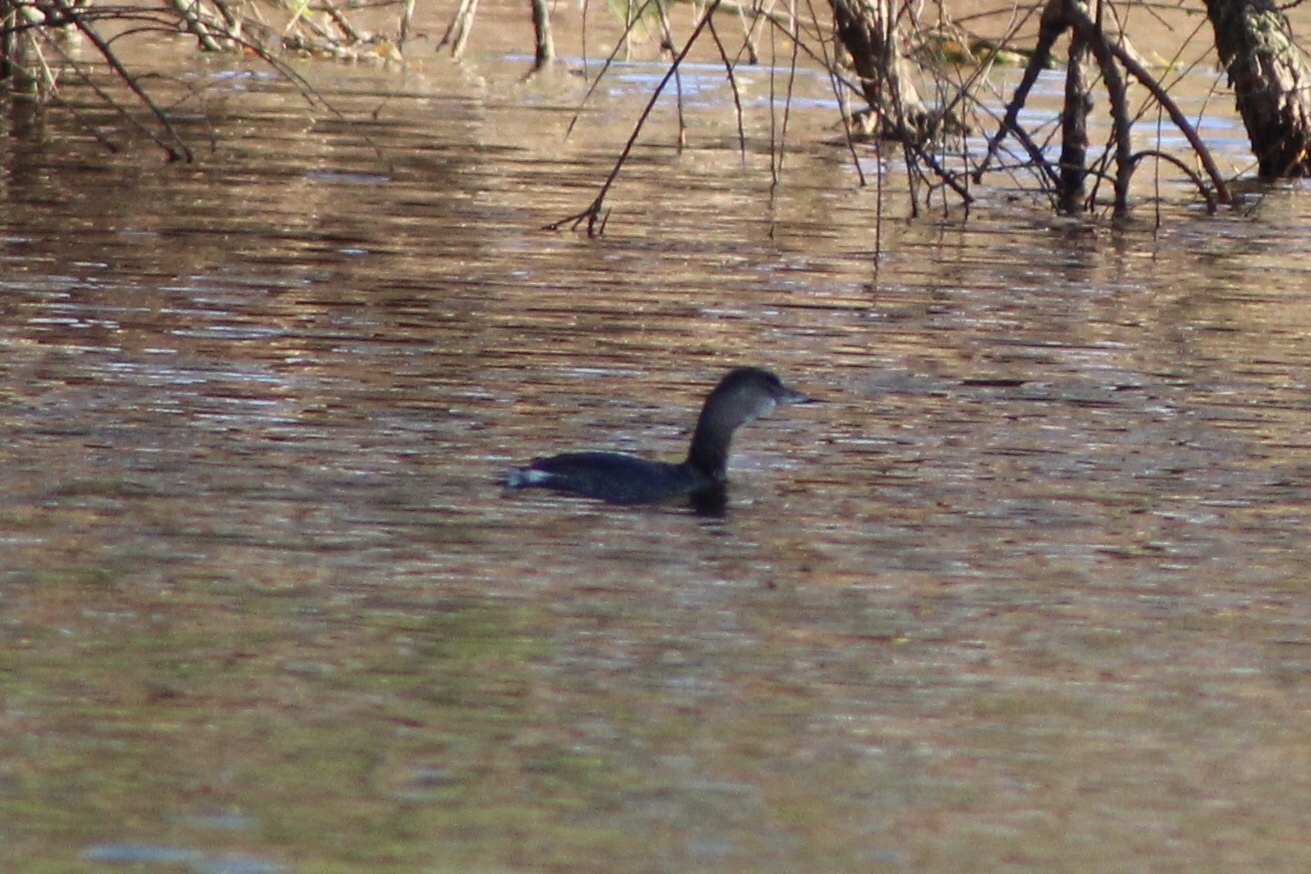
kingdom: Animalia
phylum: Chordata
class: Aves
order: Podicipediformes
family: Podicipedidae
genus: Podilymbus
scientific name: Podilymbus podiceps
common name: Pied-billed grebe
